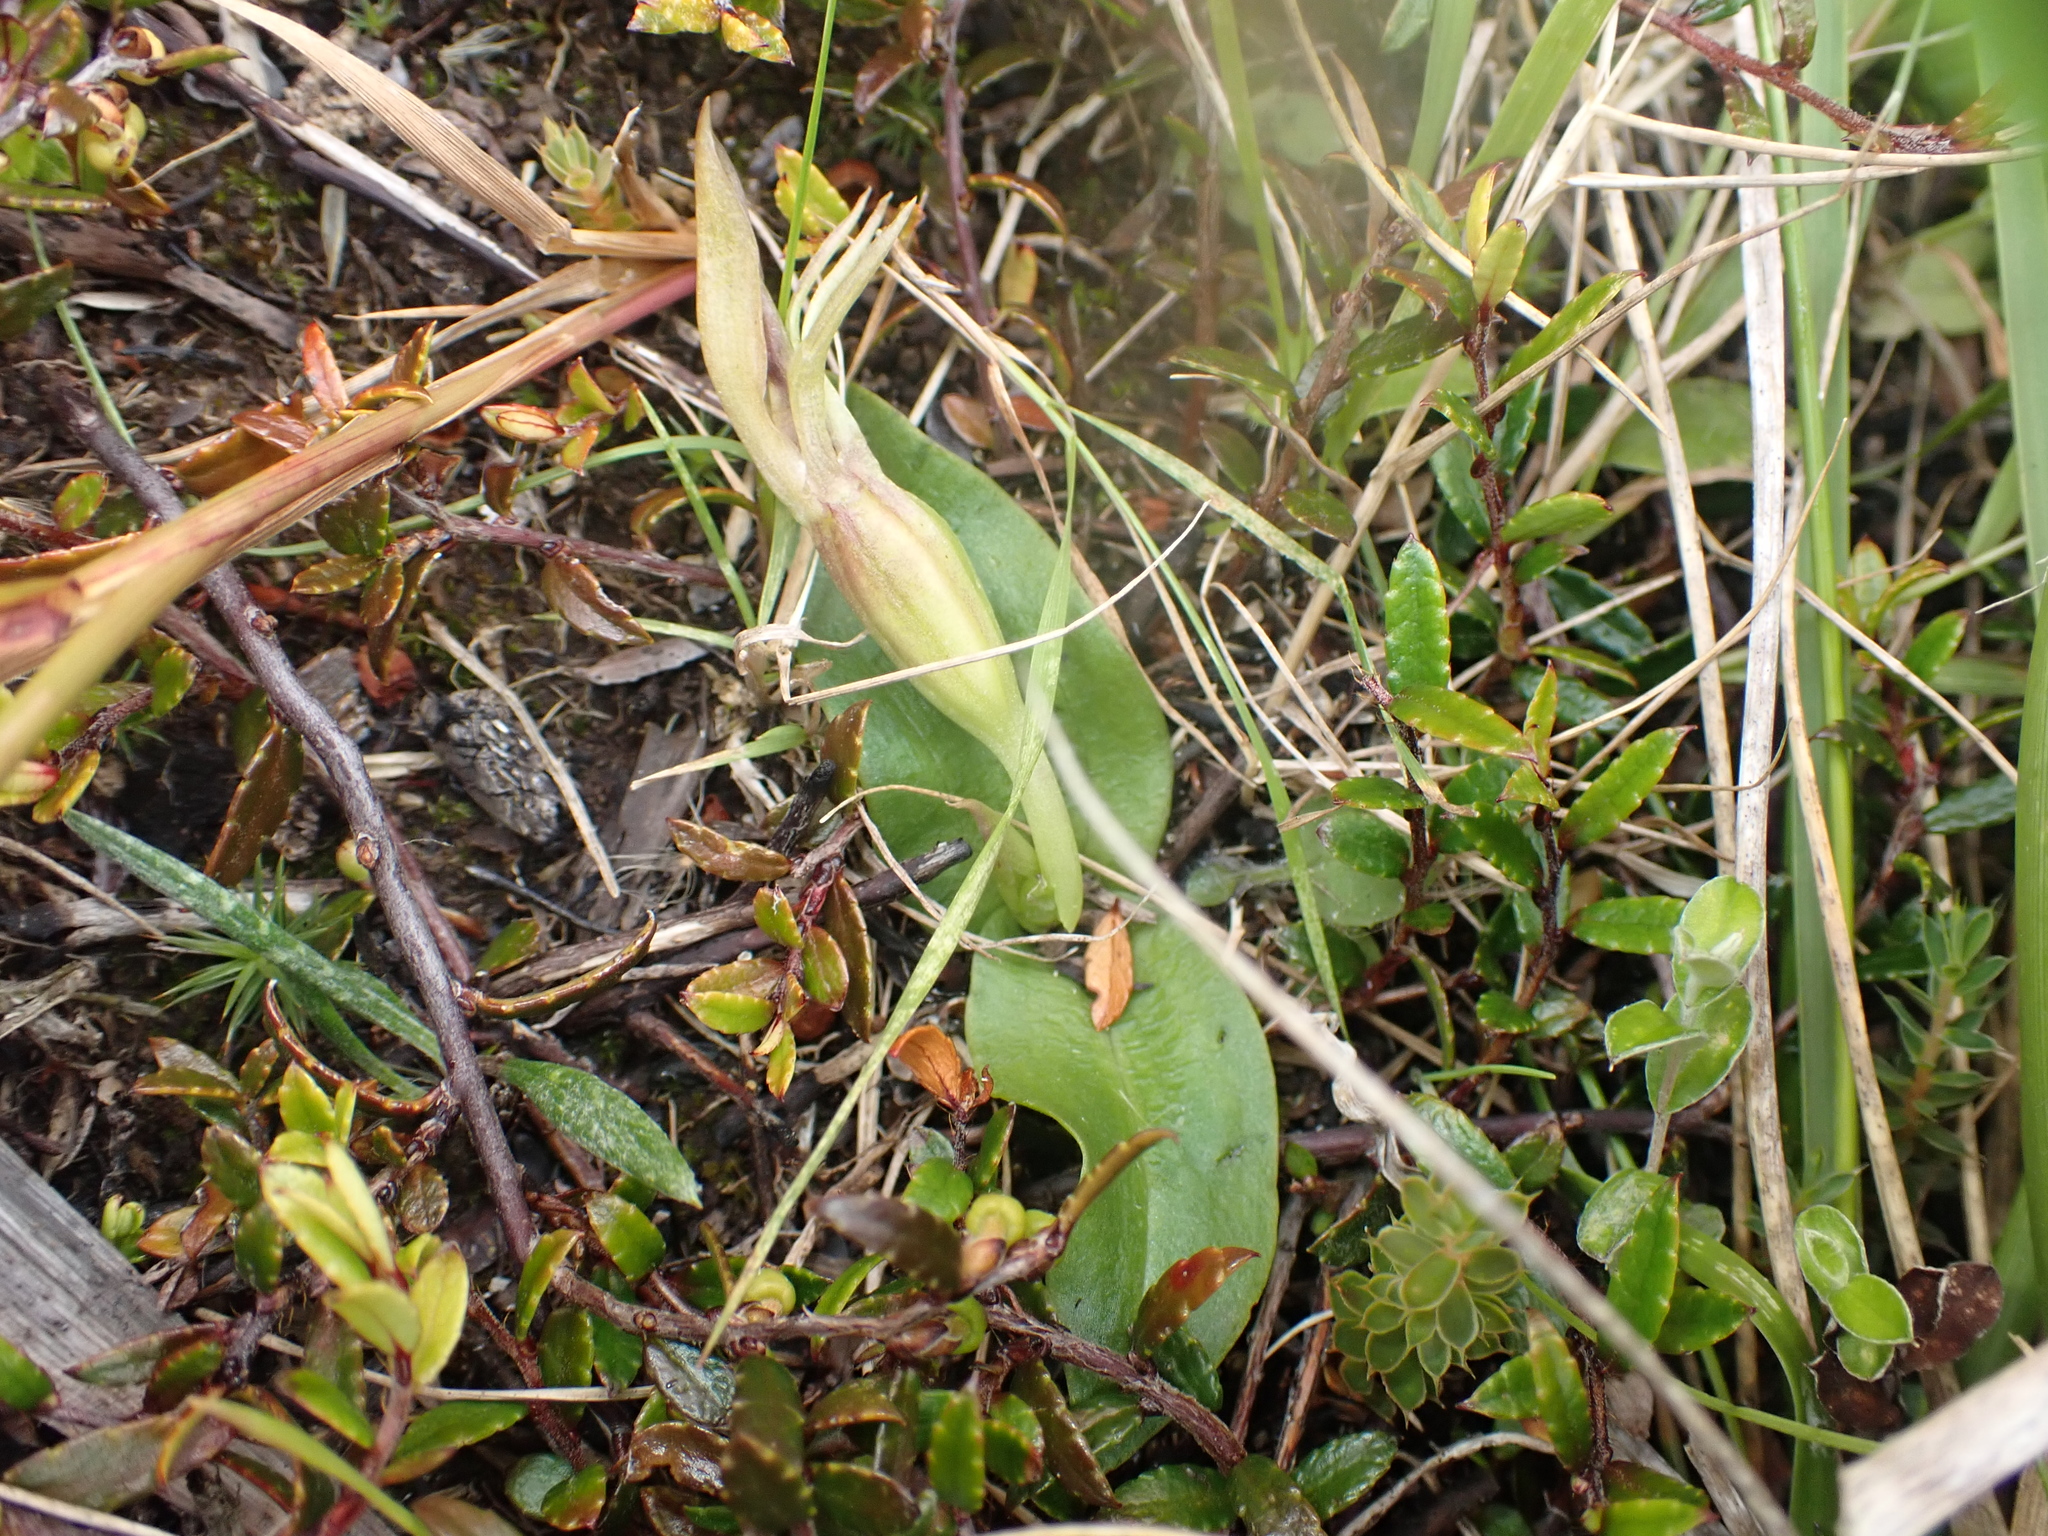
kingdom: Plantae
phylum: Tracheophyta
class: Liliopsida
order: Asparagales
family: Orchidaceae
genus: Chiloglottis
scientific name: Chiloglottis cornuta
